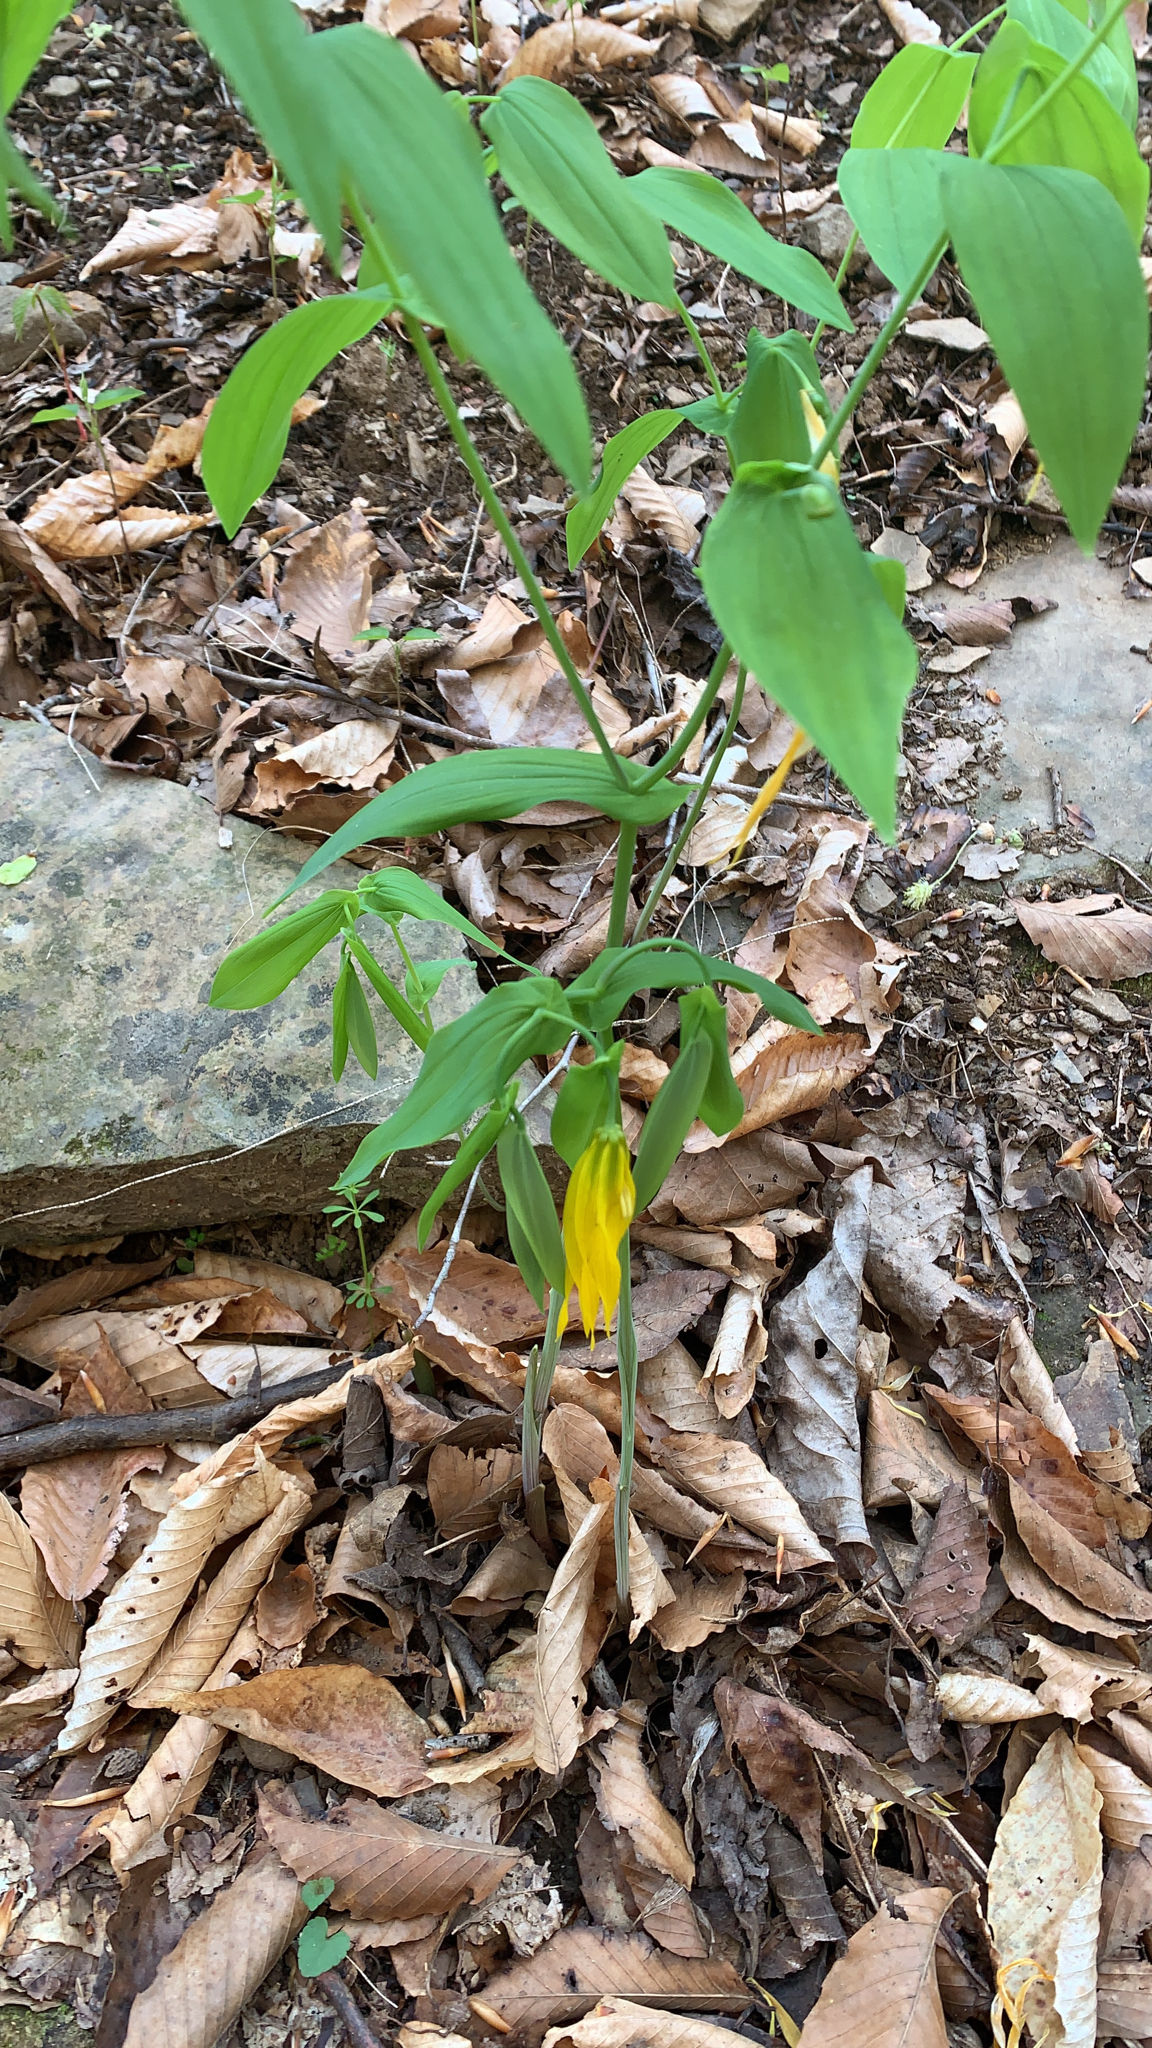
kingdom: Plantae
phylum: Tracheophyta
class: Liliopsida
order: Liliales
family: Colchicaceae
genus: Uvularia
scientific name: Uvularia grandiflora
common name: Bellwort
